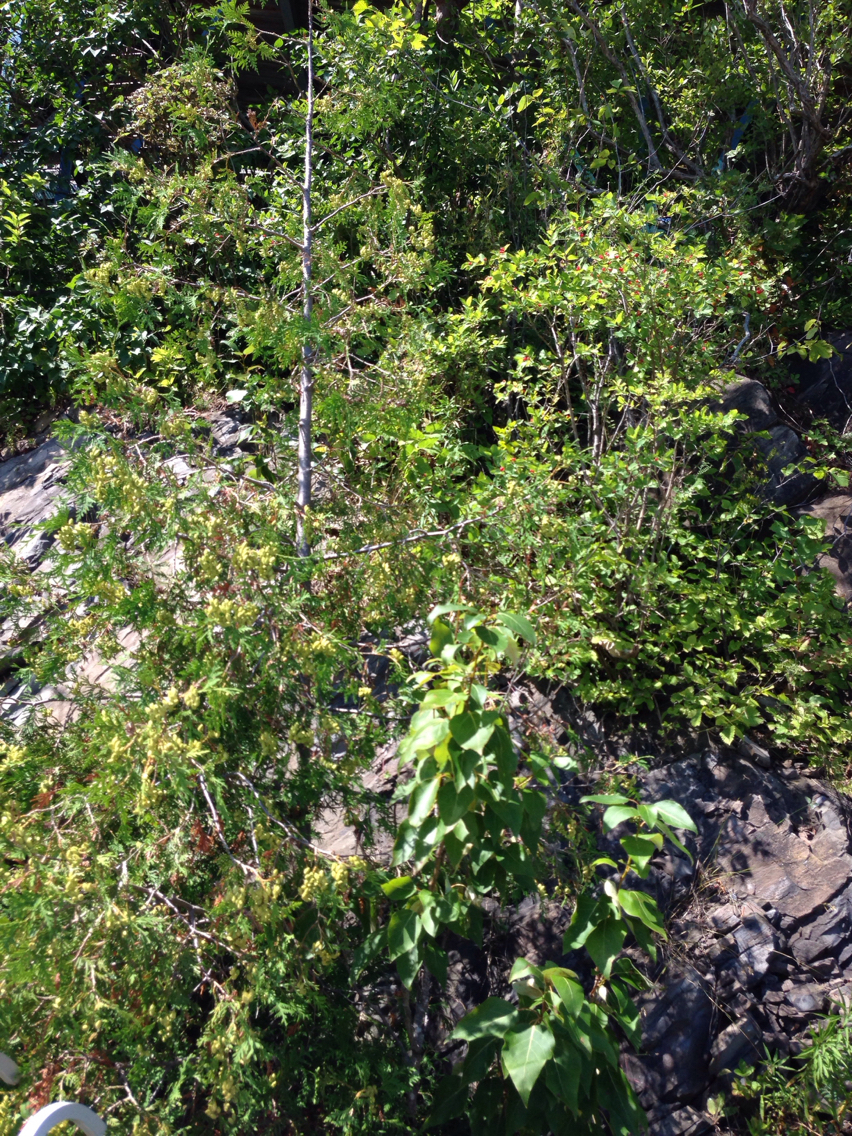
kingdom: Plantae
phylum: Tracheophyta
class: Pinopsida
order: Pinales
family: Cupressaceae
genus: Thuja
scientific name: Thuja occidentalis
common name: Northern white-cedar
